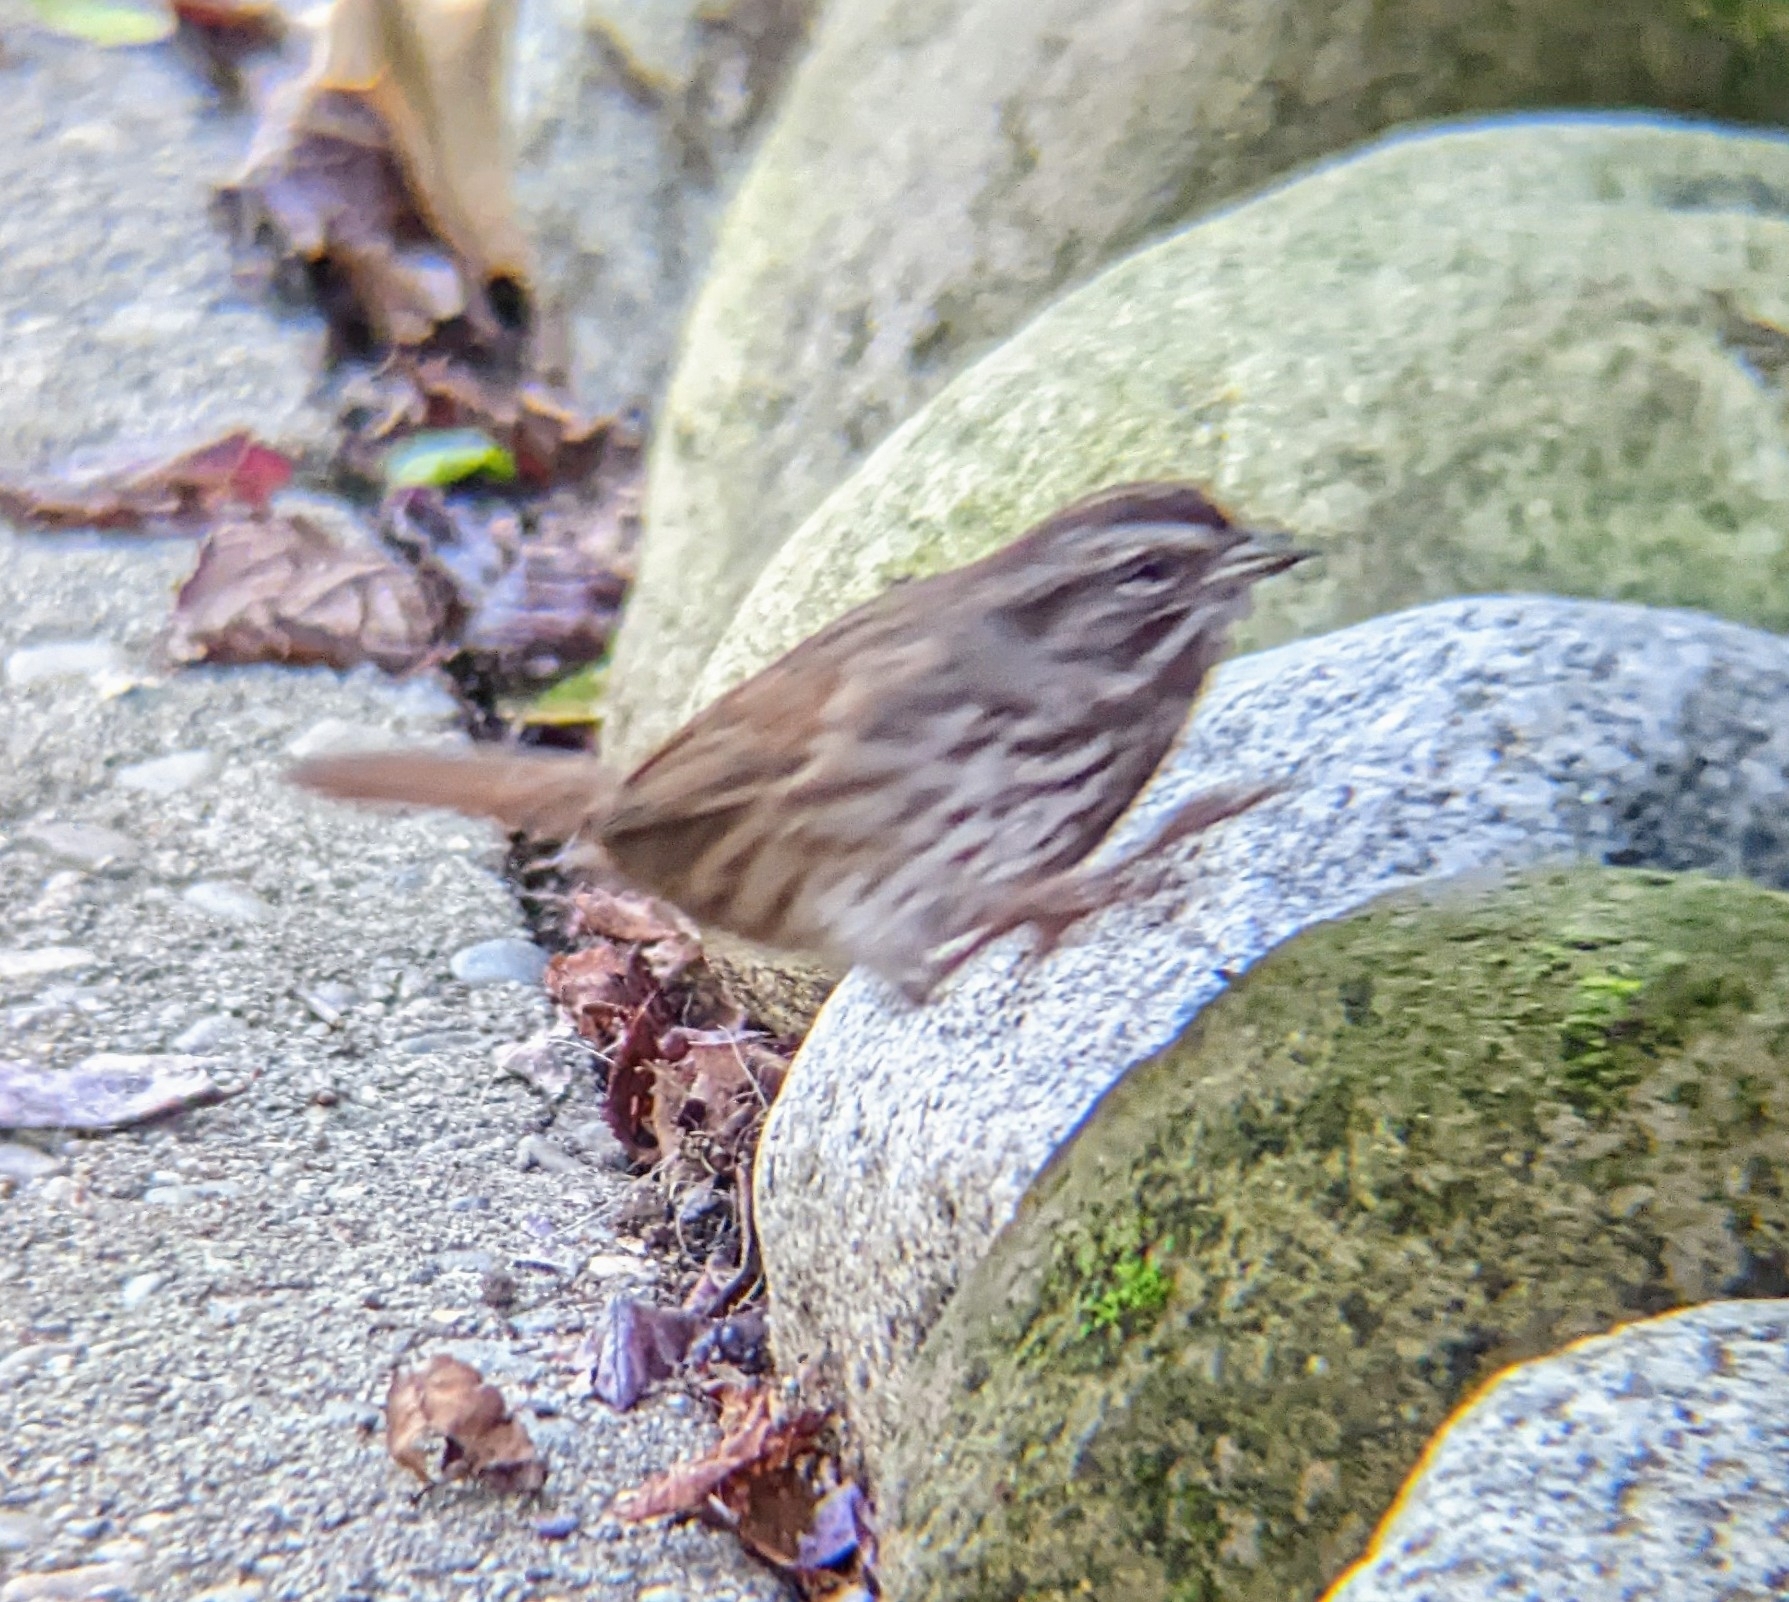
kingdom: Animalia
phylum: Chordata
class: Aves
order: Passeriformes
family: Passerellidae
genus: Melospiza
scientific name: Melospiza melodia
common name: Song sparrow
